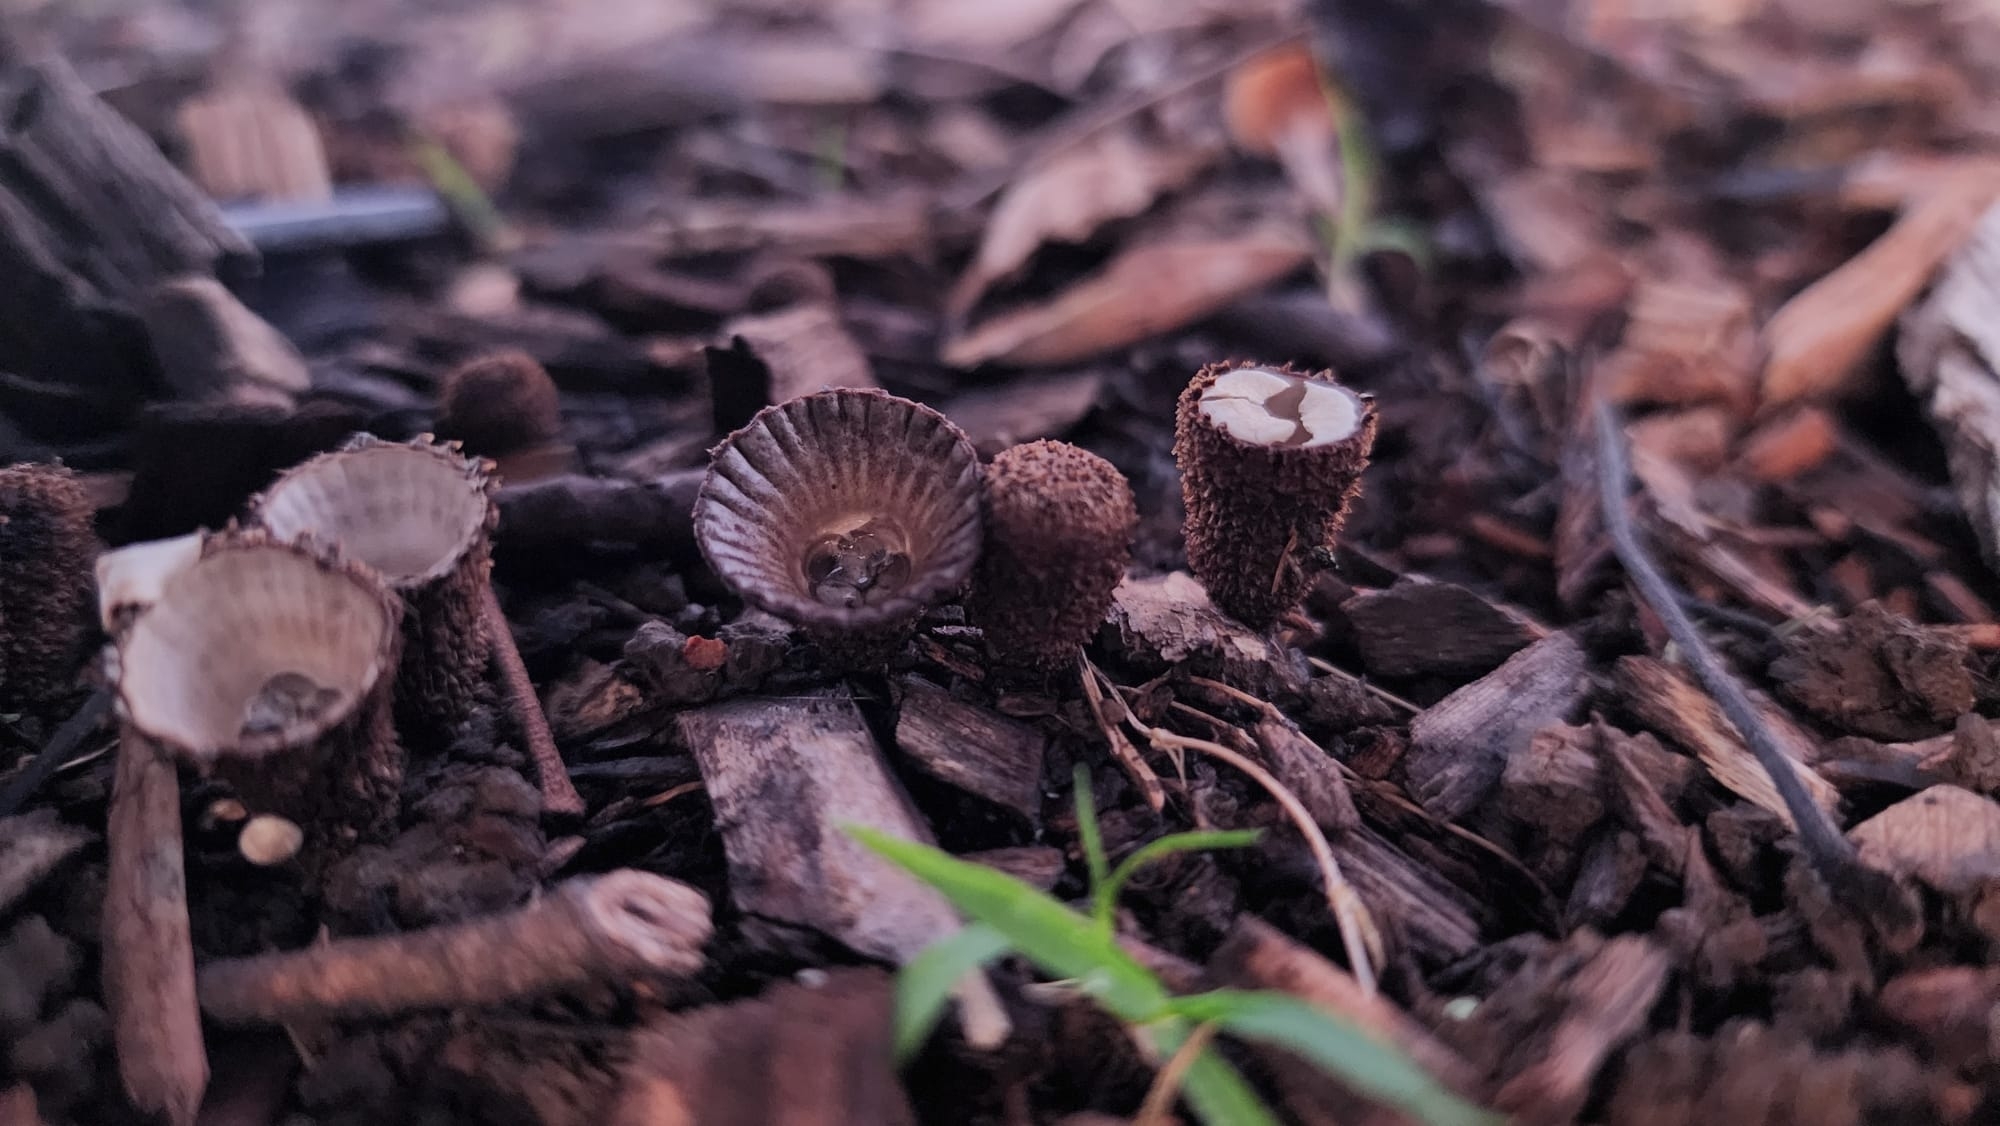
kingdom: Fungi
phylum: Basidiomycota
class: Agaricomycetes
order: Agaricales
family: Agaricaceae
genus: Cyathus
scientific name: Cyathus striatus
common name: Fluted bird's nest
